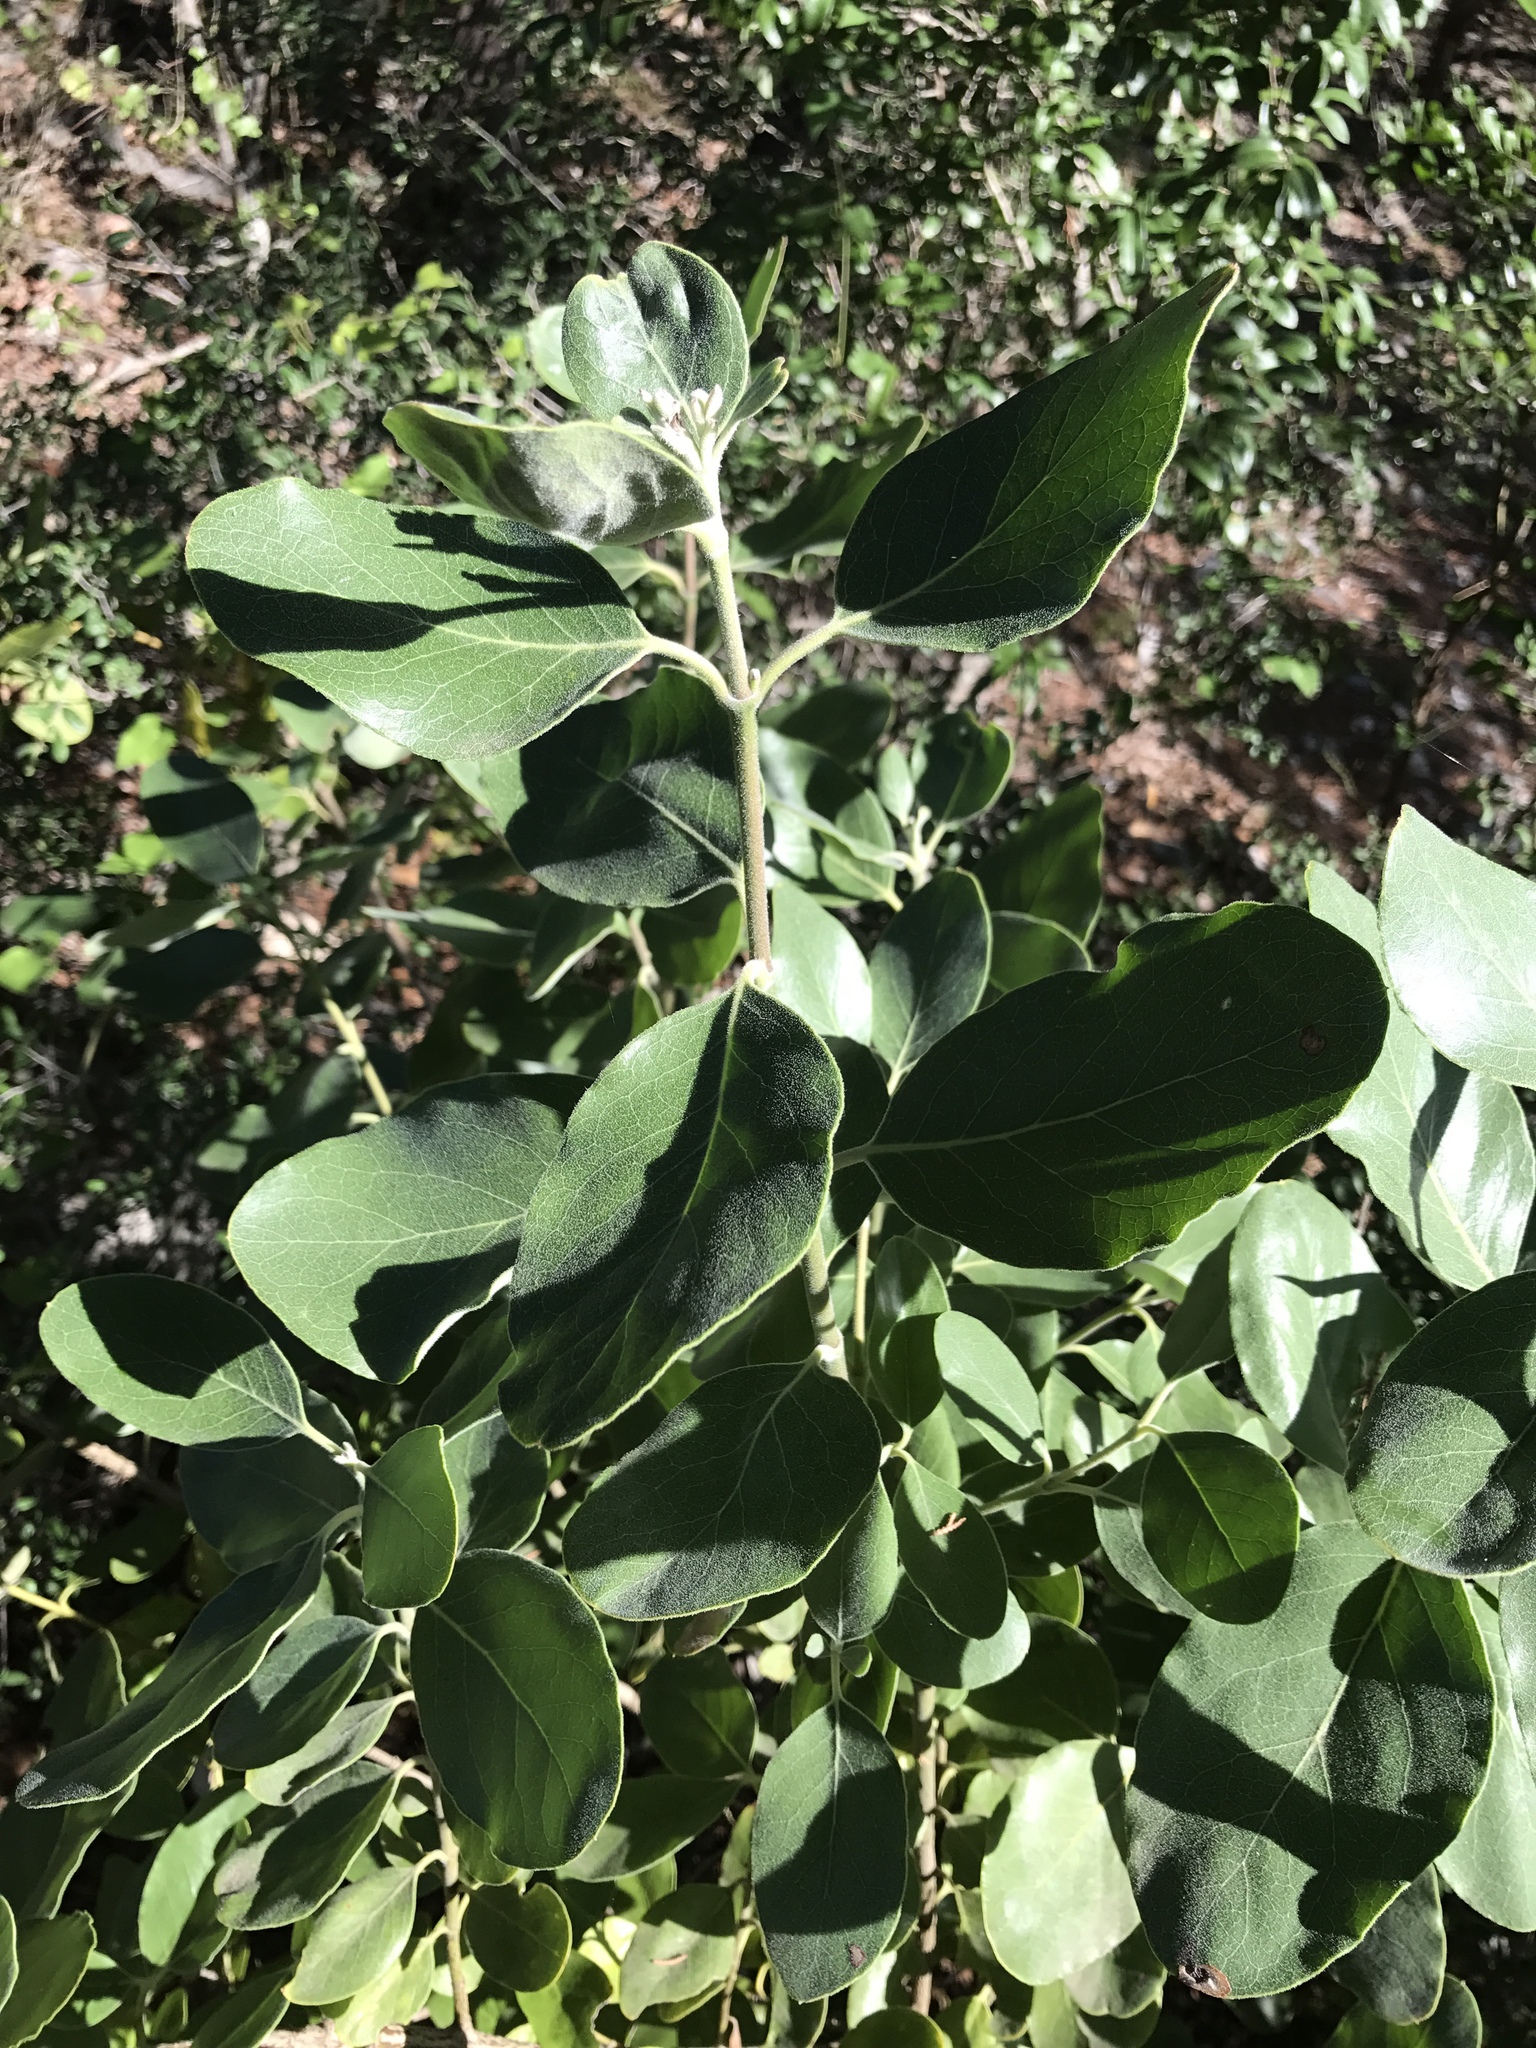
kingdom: Plantae
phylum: Tracheophyta
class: Magnoliopsida
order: Garryales
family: Garryaceae
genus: Garrya
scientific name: Garrya lindheimeri
